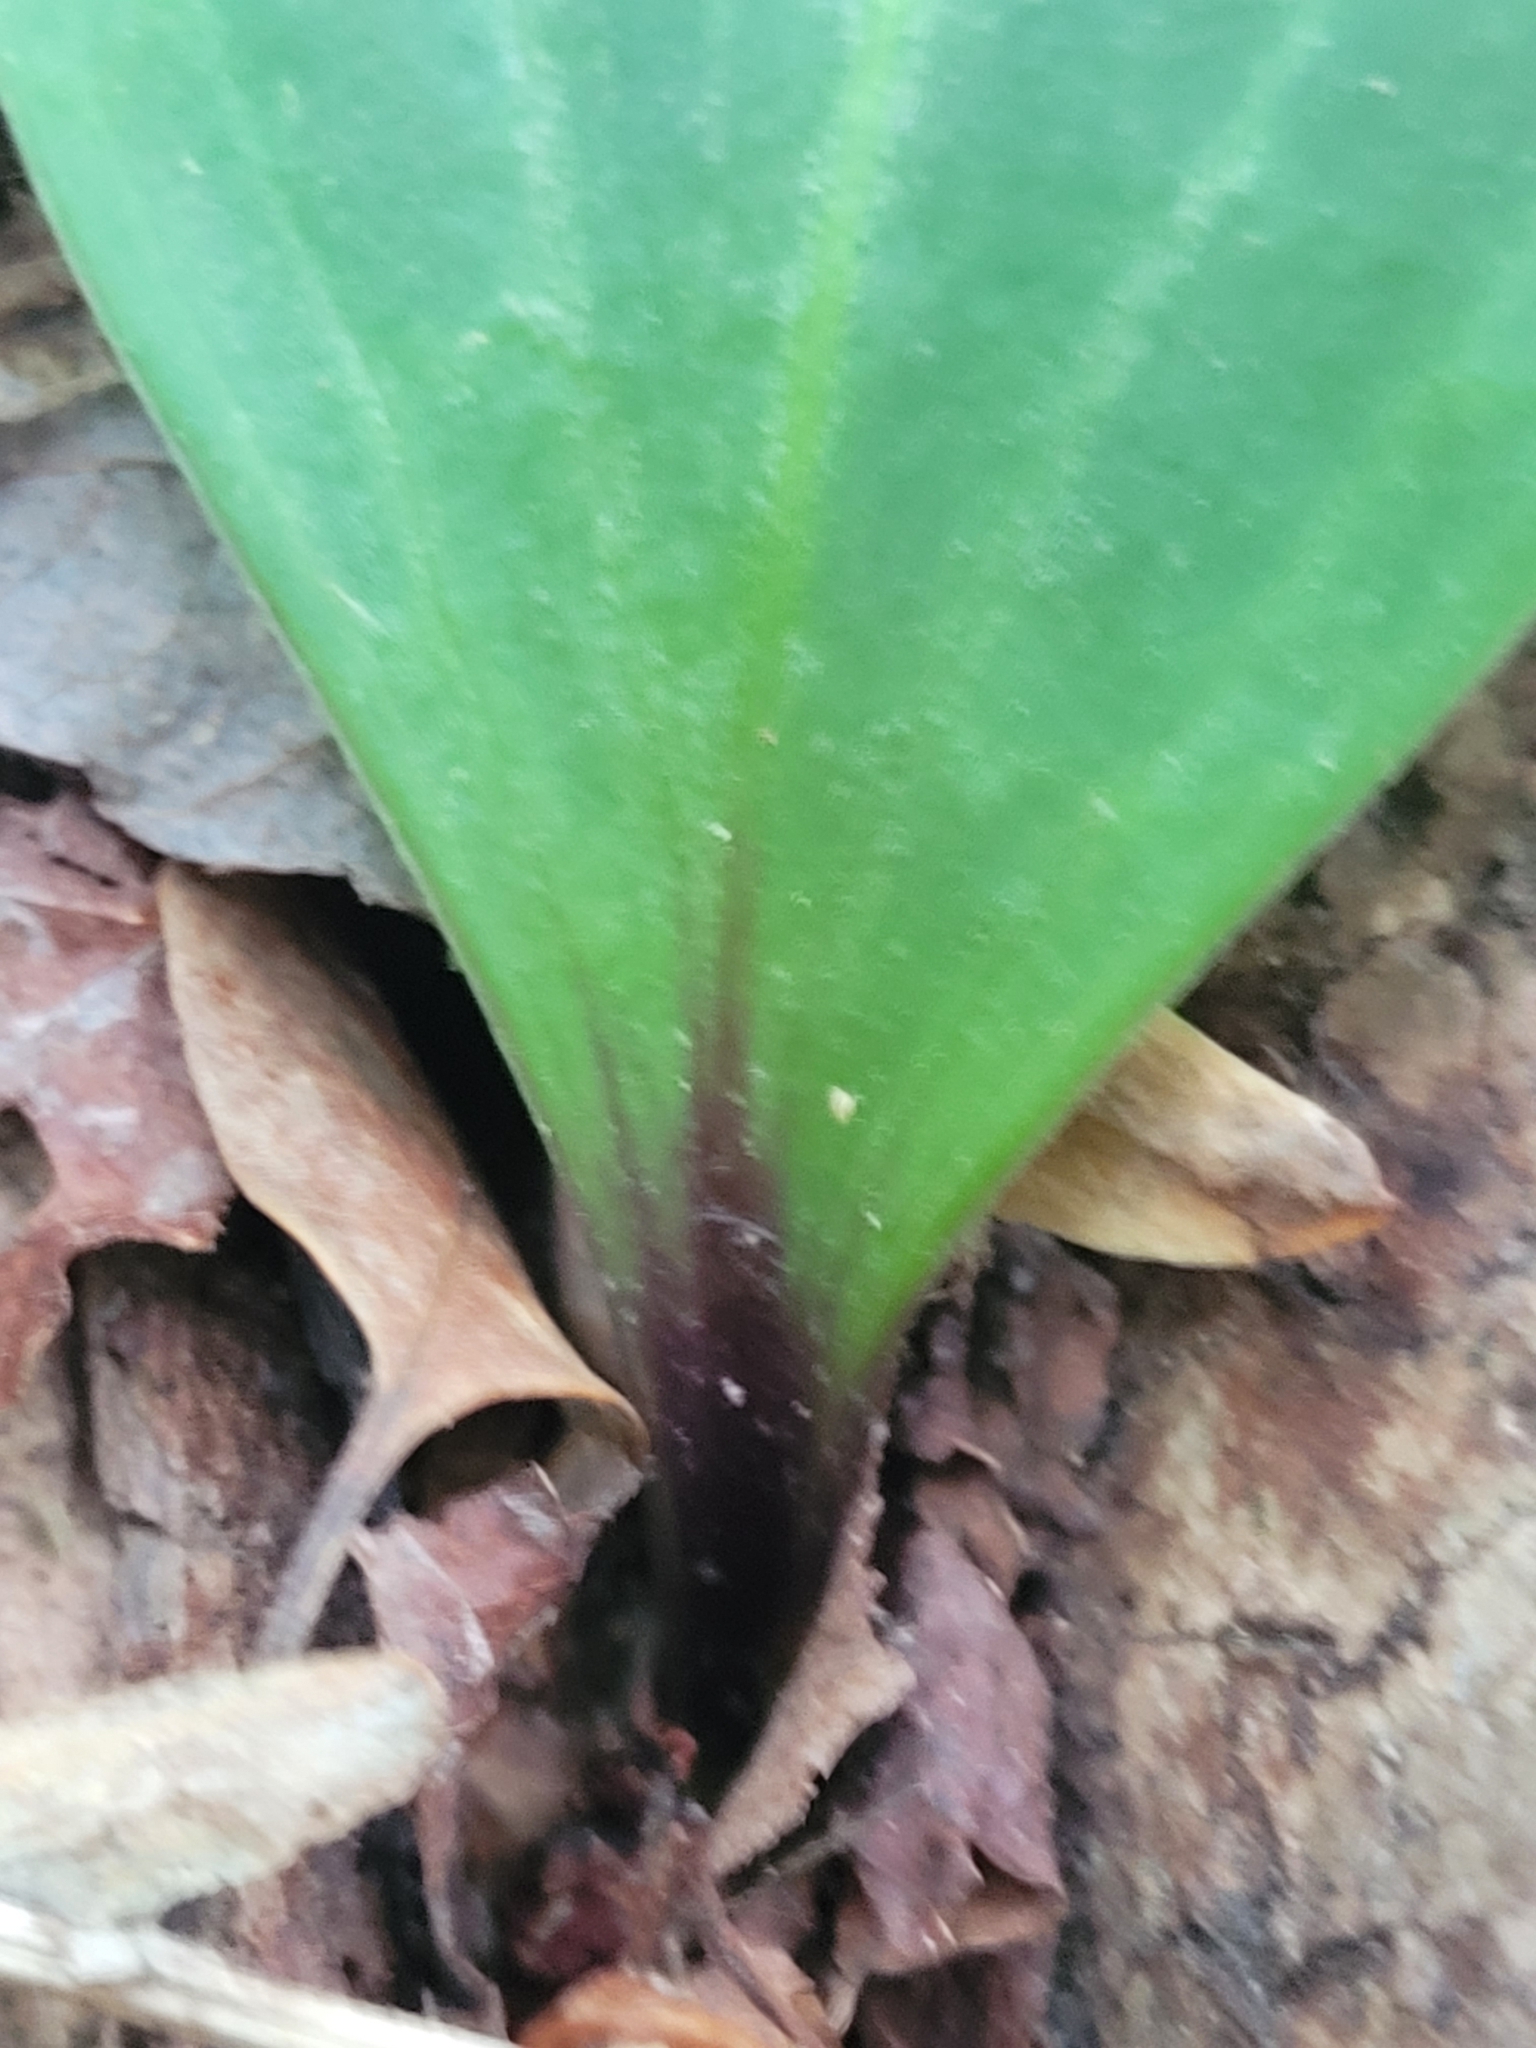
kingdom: Plantae
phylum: Tracheophyta
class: Liliopsida
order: Liliales
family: Liliaceae
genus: Lilium
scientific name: Lilium michauxii
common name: Carolina lily
